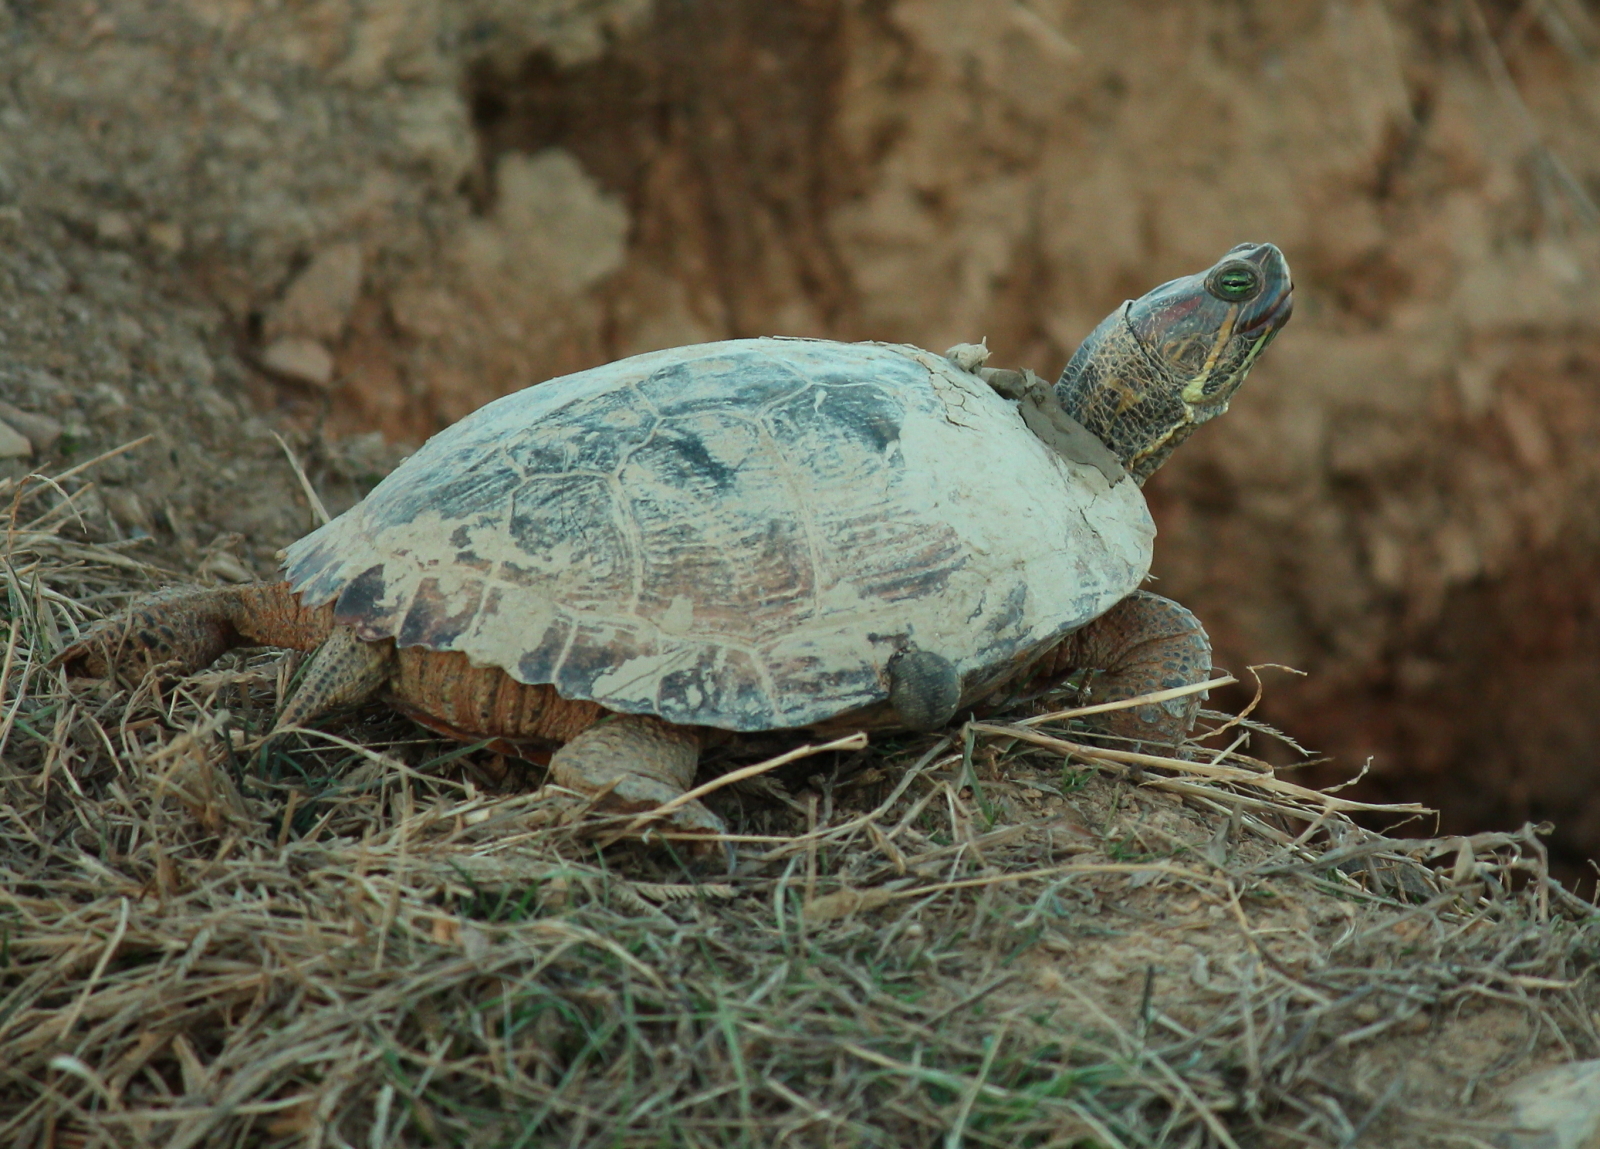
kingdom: Animalia
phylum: Chordata
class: Testudines
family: Emydidae
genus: Trachemys
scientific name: Trachemys scripta
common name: Slider
